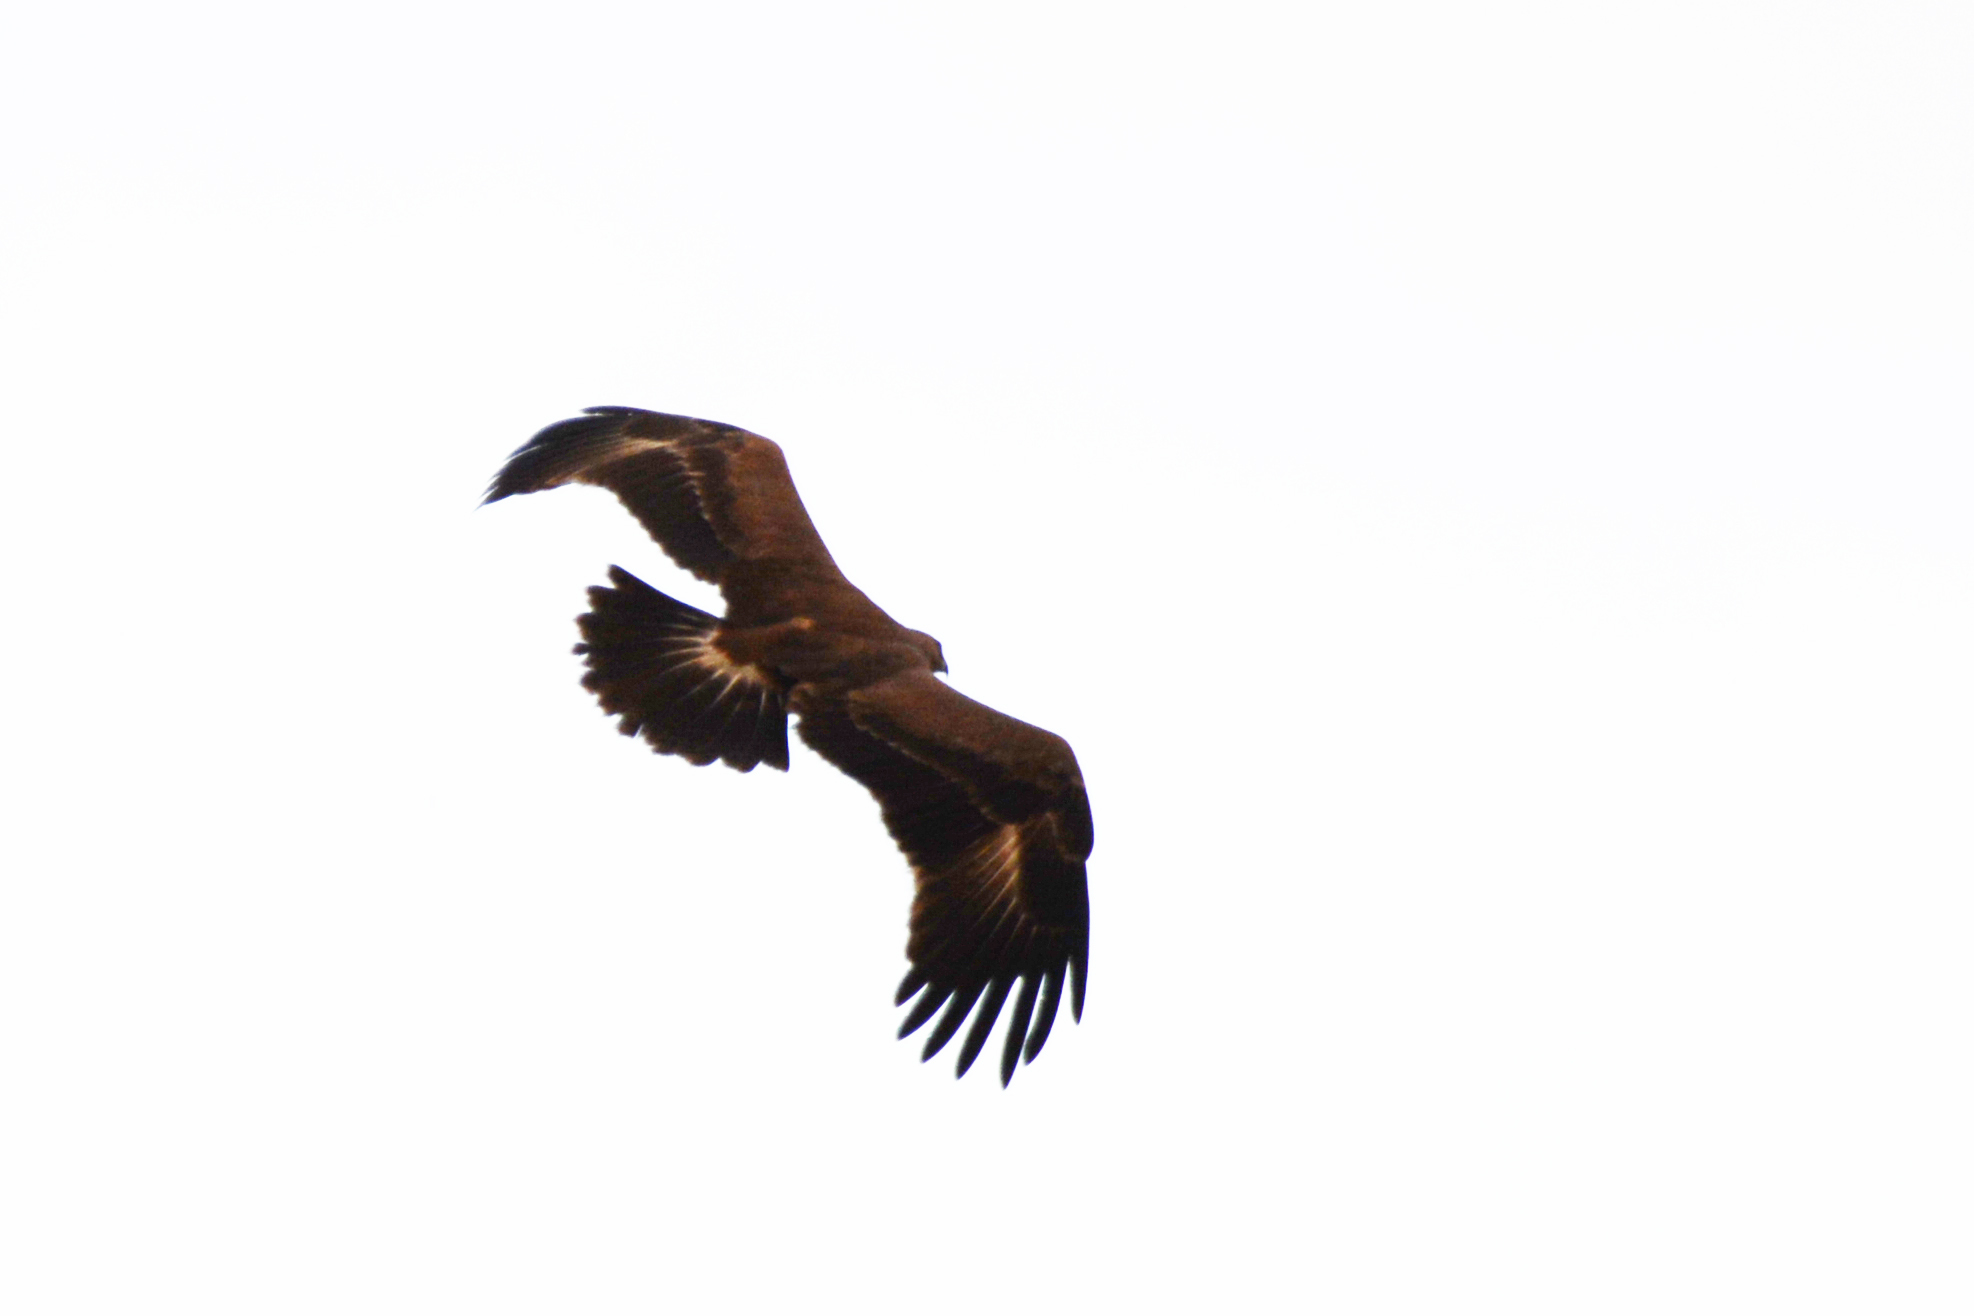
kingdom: Animalia
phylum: Chordata
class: Aves
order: Accipitriformes
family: Accipitridae
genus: Aquila
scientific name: Aquila nipalensis
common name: Steppe eagle
